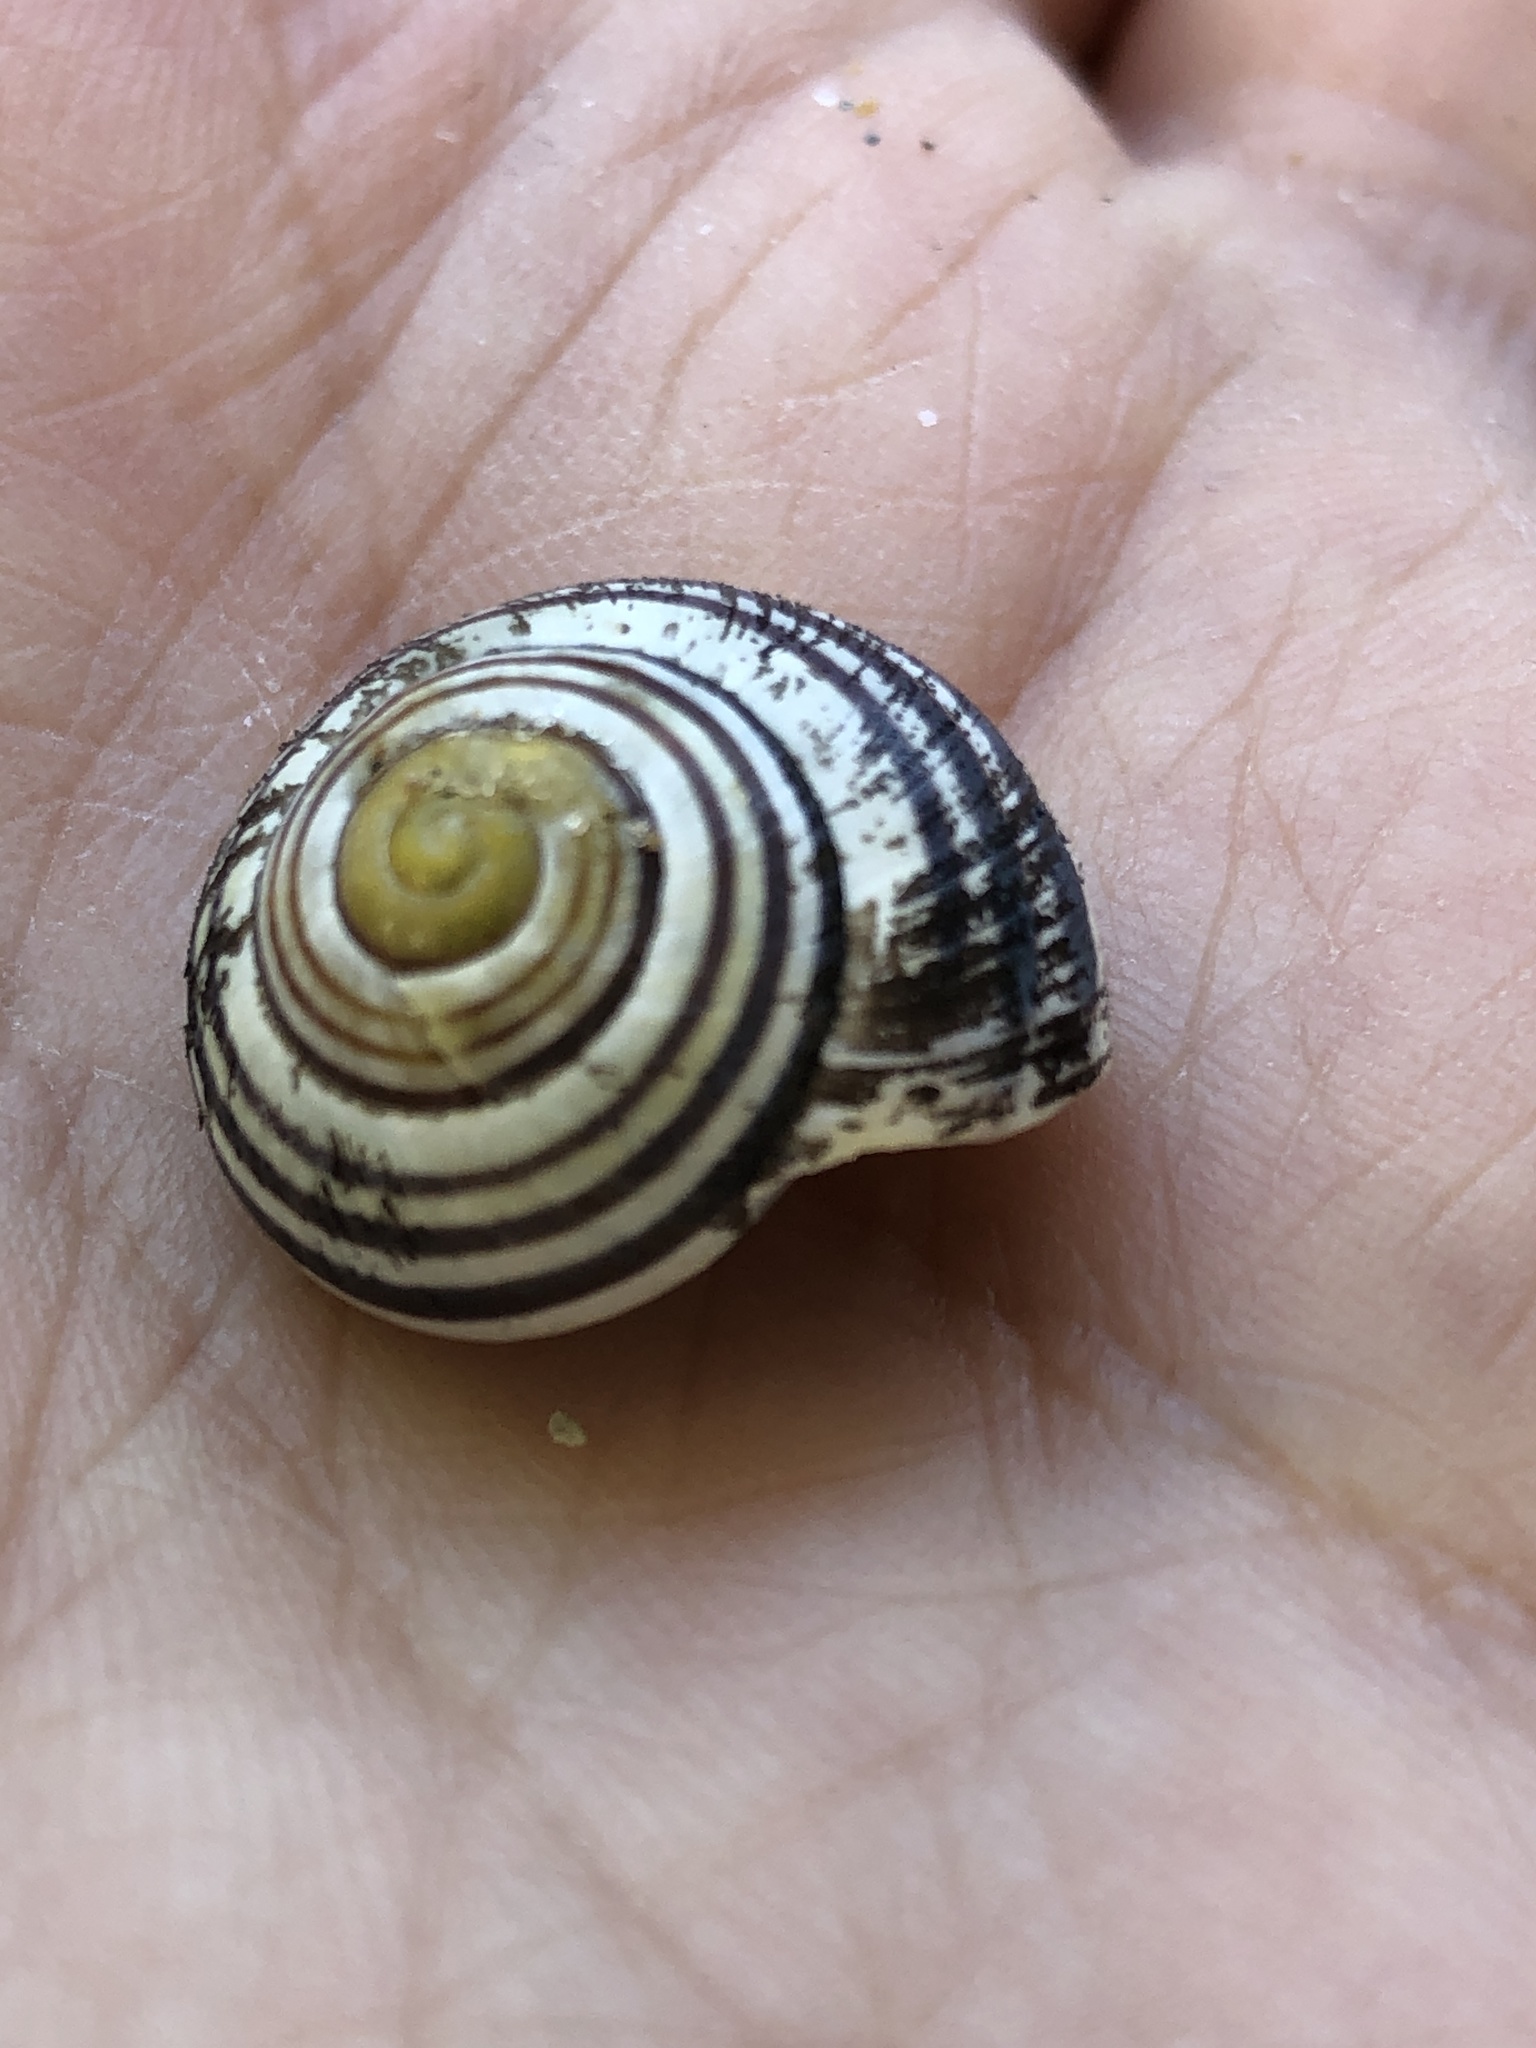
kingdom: Animalia
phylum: Mollusca
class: Gastropoda
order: Stylommatophora
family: Helicidae
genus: Cepaea
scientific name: Cepaea
